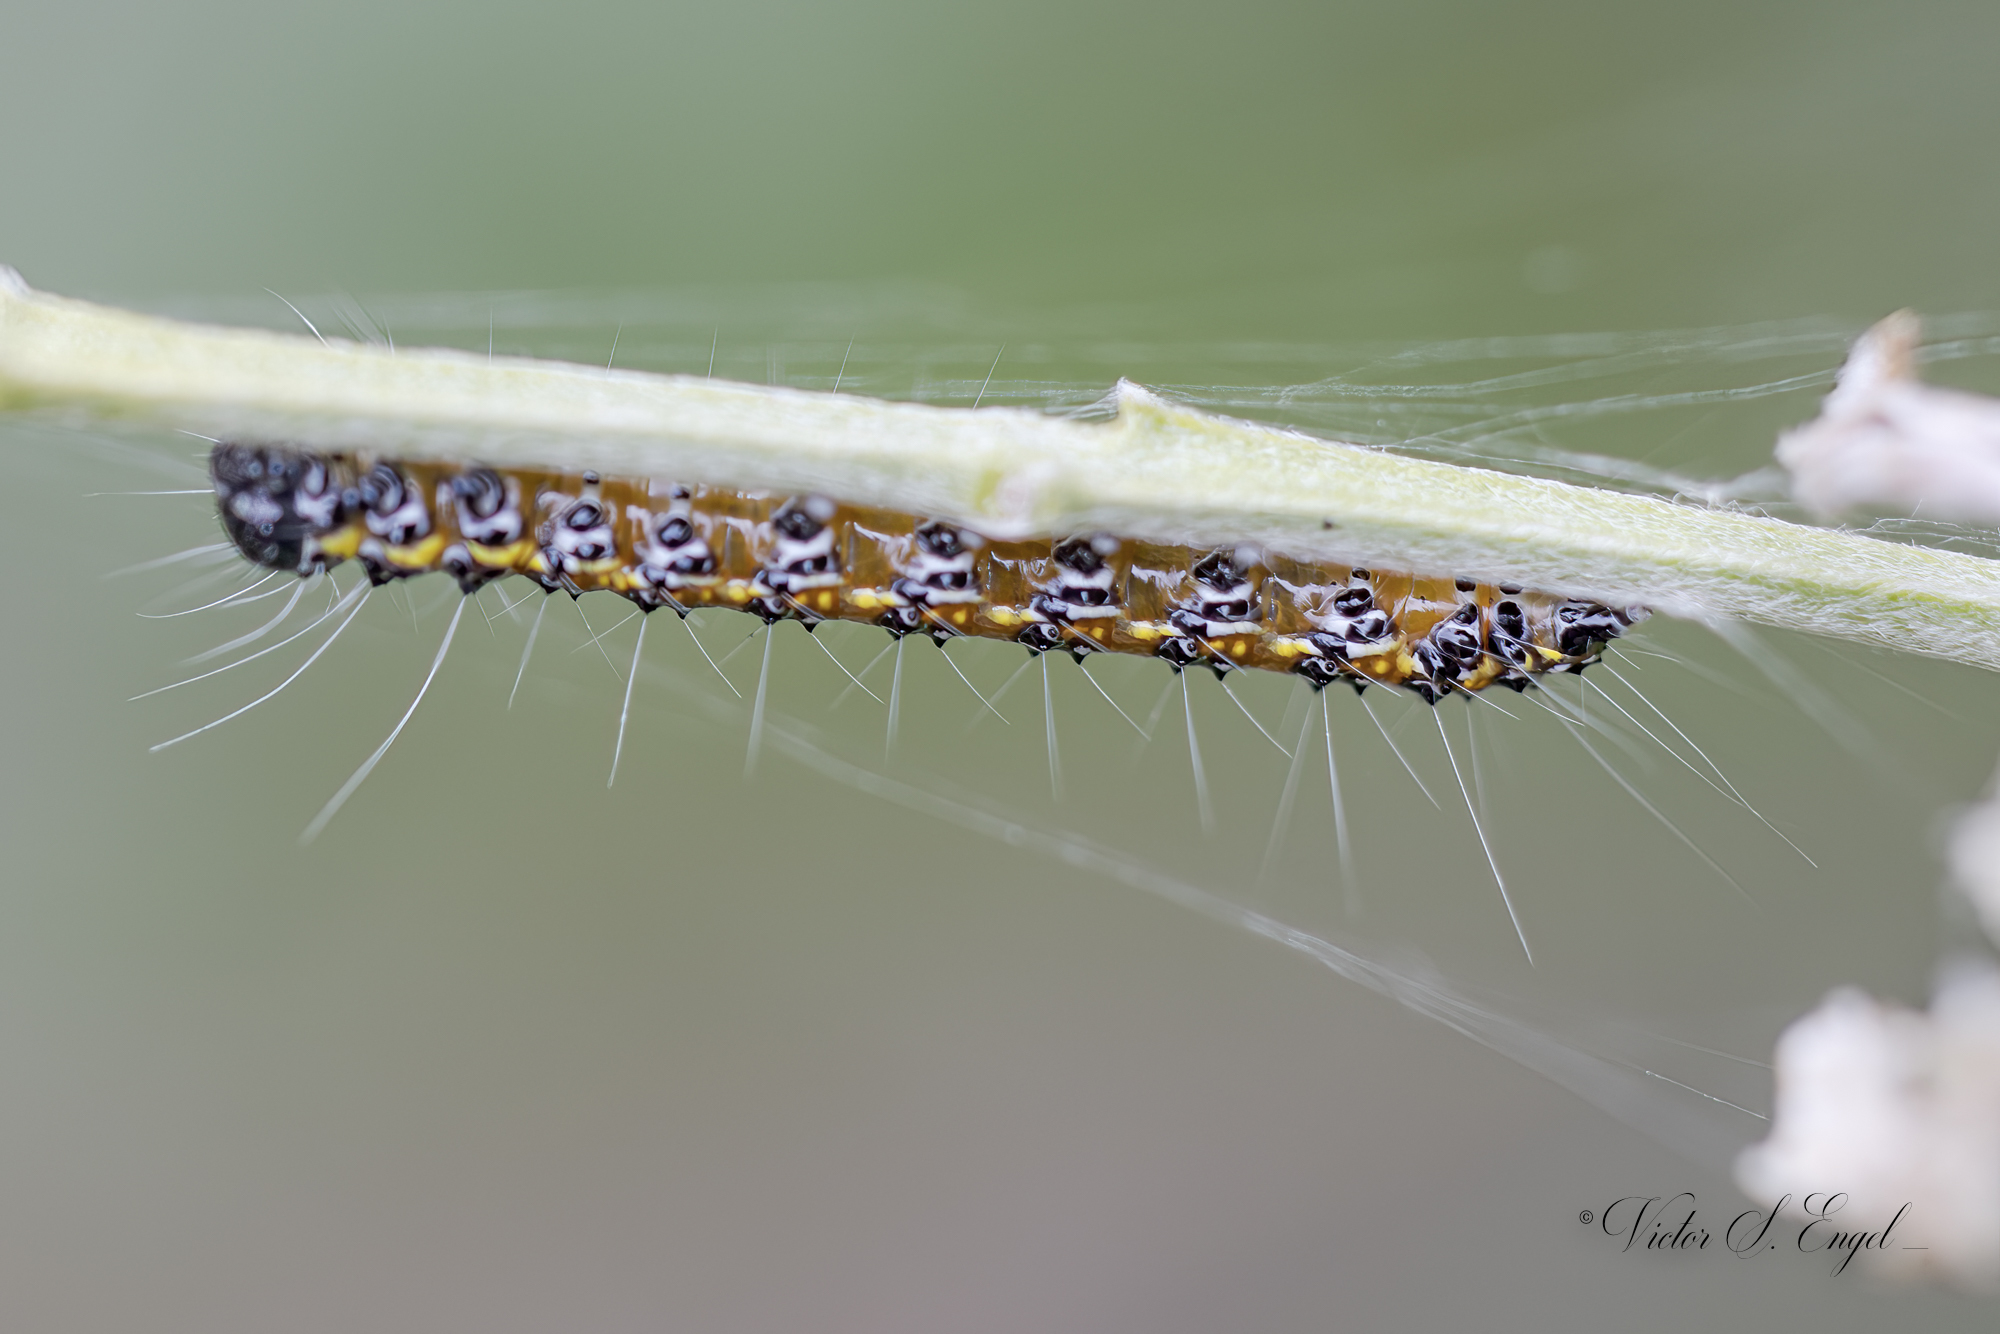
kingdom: Animalia
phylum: Arthropoda
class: Insecta
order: Lepidoptera
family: Crambidae
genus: Uresiphita
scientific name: Uresiphita reversalis
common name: Genista broom moth
